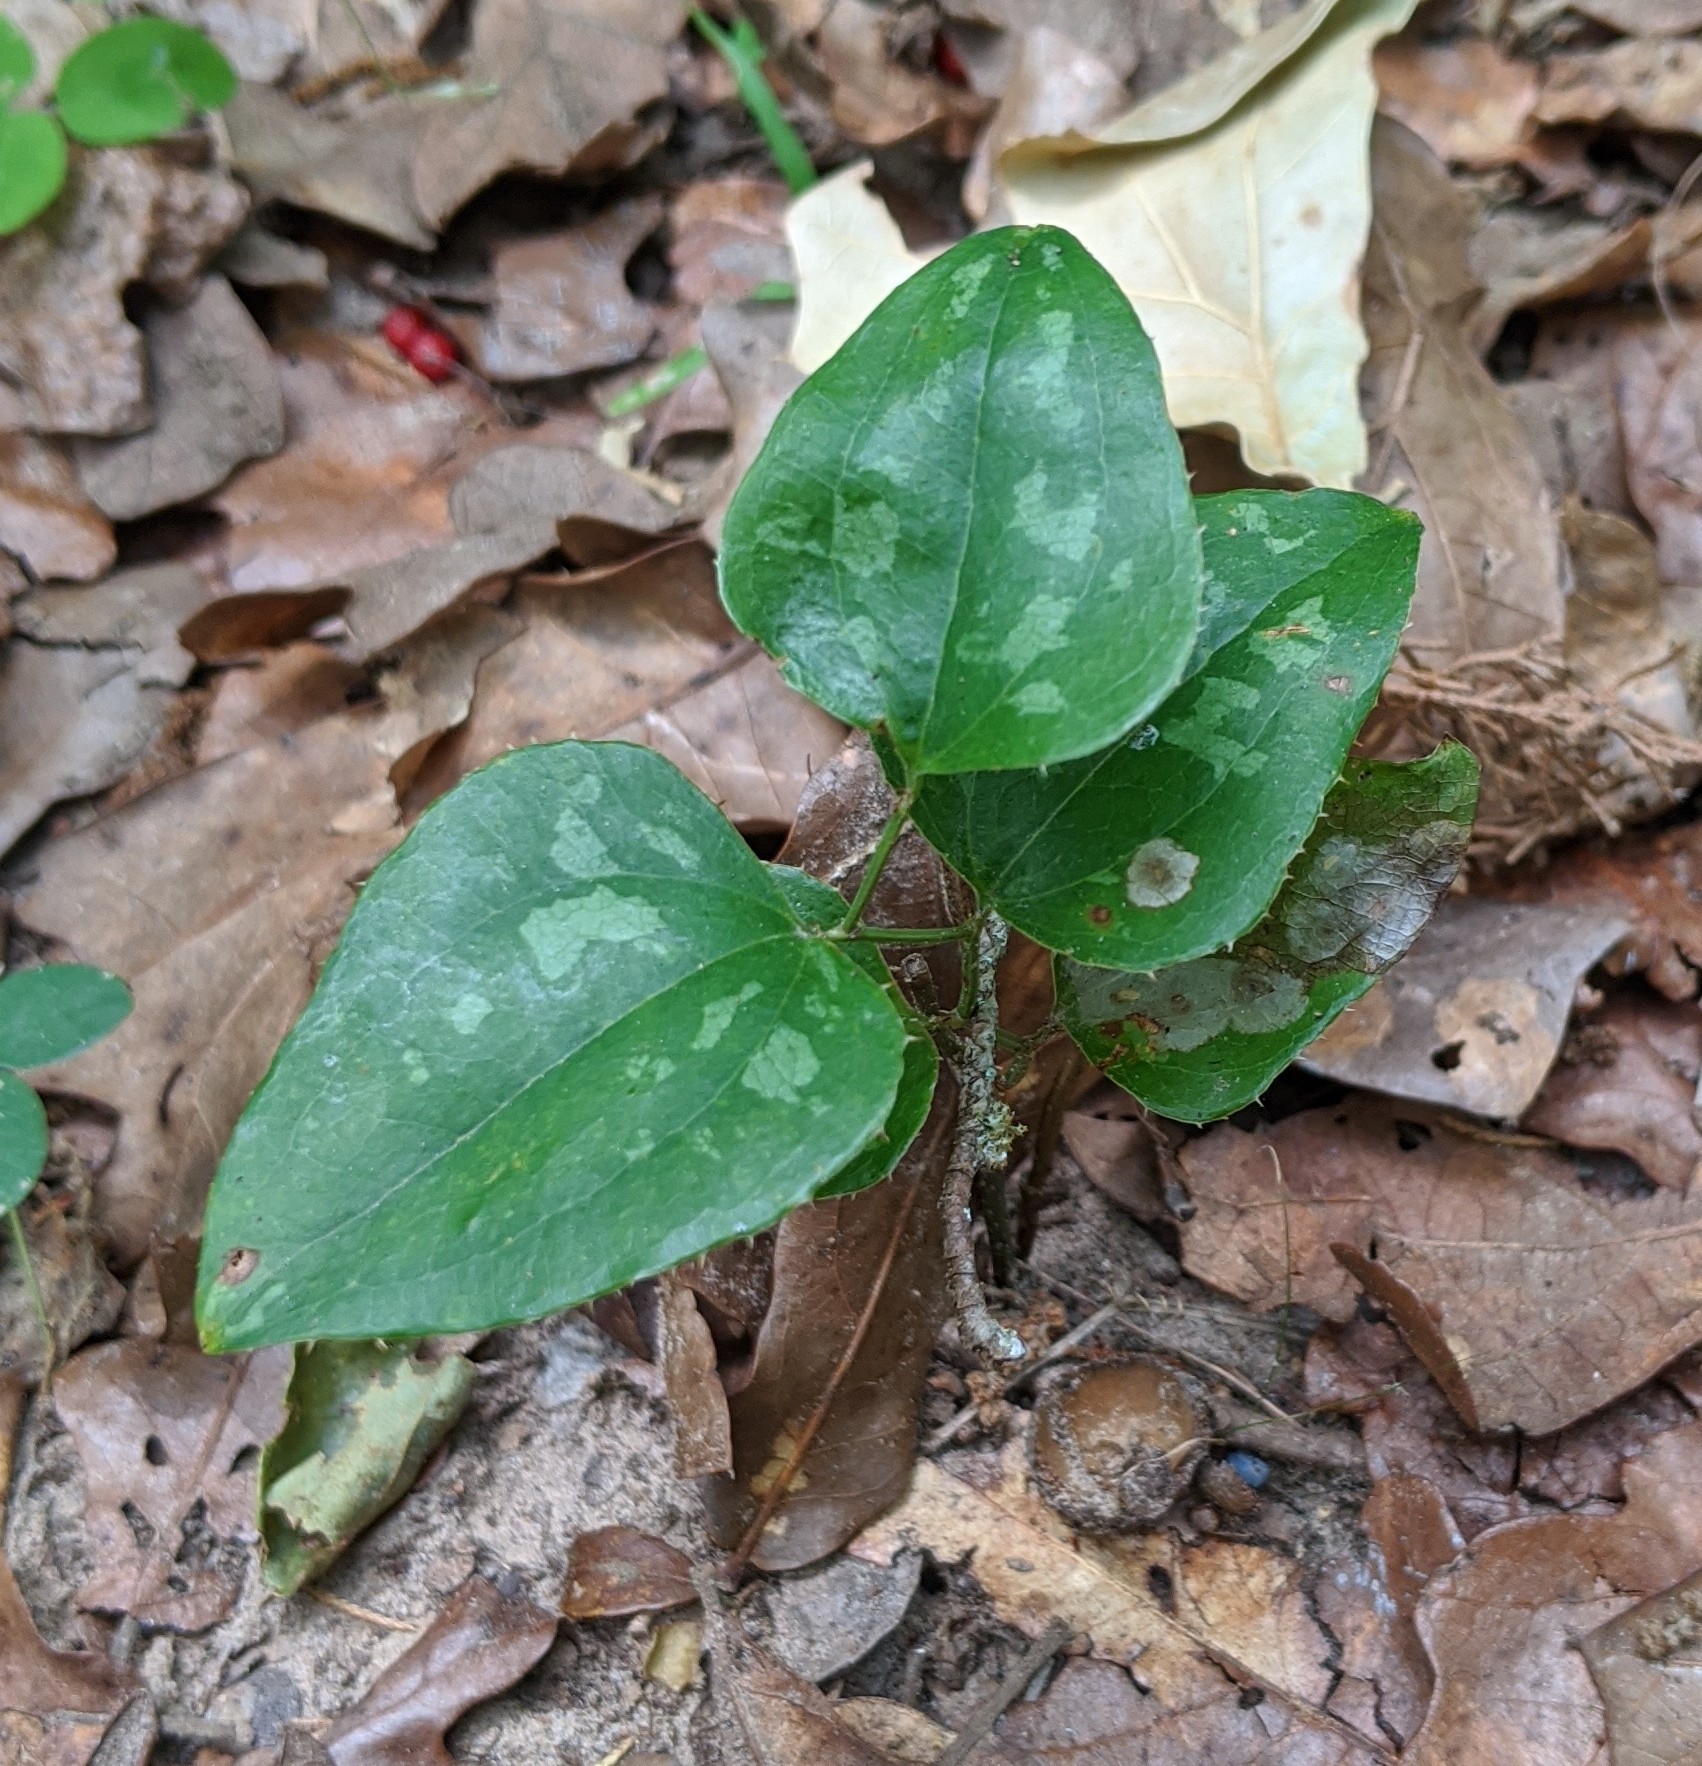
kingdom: Plantae
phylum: Tracheophyta
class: Liliopsida
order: Liliales
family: Smilacaceae
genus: Smilax
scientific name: Smilax bona-nox
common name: Catbrier
